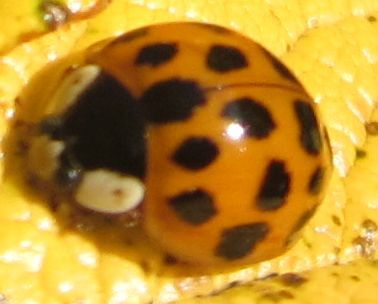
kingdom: Animalia
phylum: Arthropoda
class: Insecta
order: Coleoptera
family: Coccinellidae
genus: Harmonia
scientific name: Harmonia axyridis
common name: Harlequin ladybird
